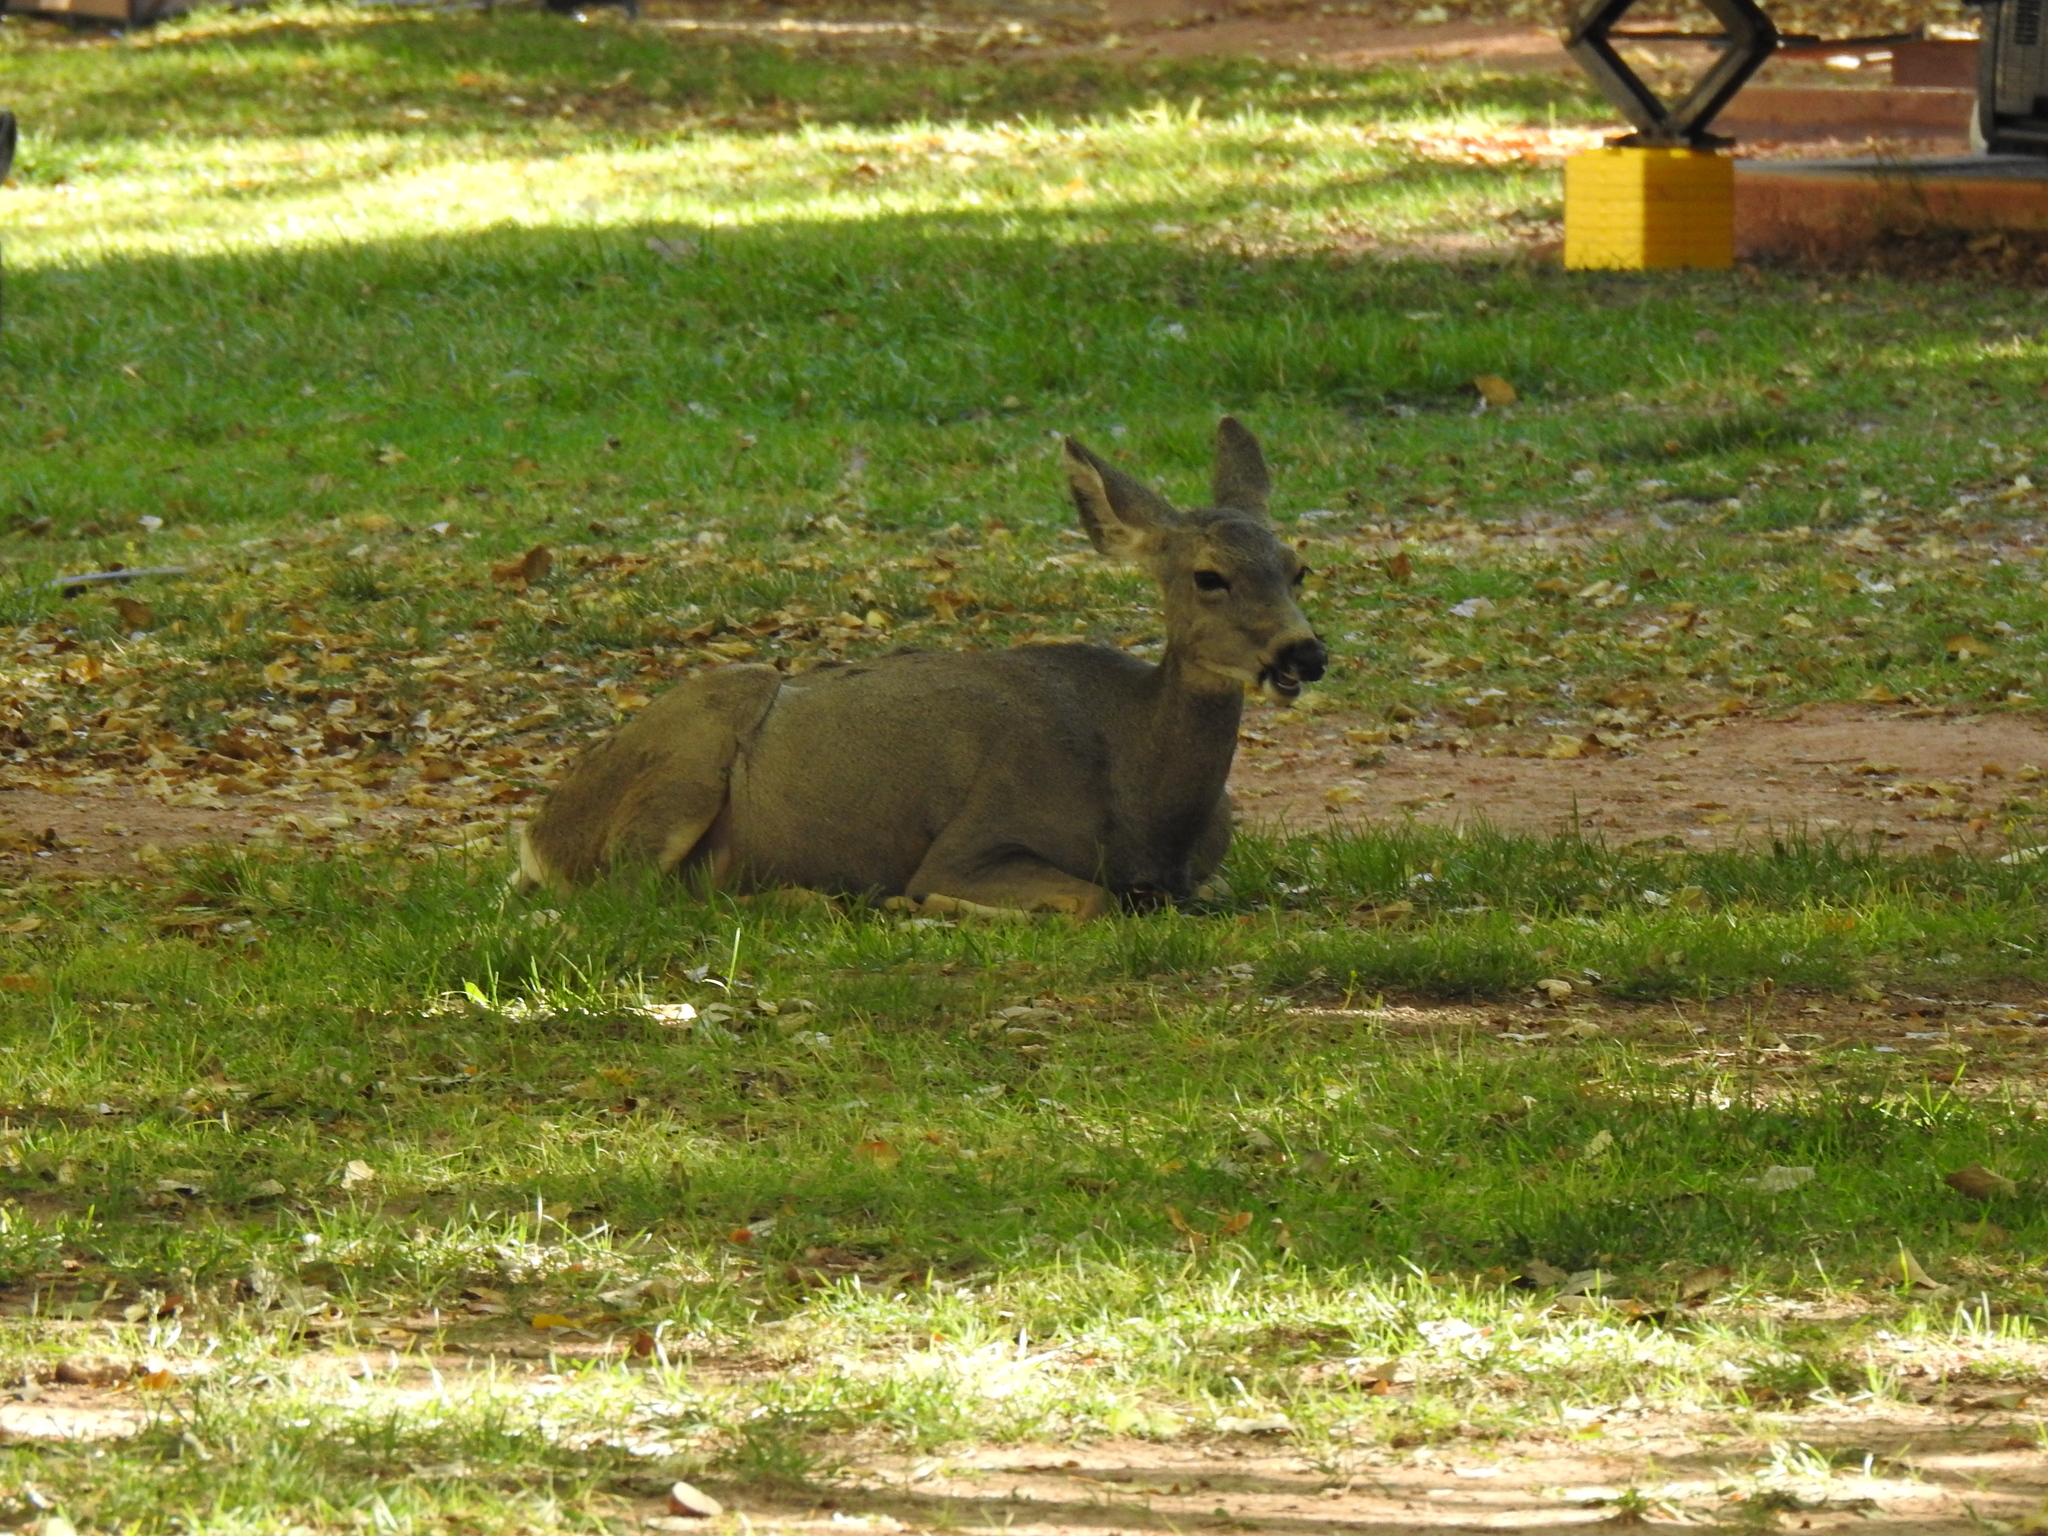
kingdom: Animalia
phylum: Chordata
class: Mammalia
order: Artiodactyla
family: Cervidae
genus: Odocoileus
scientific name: Odocoileus hemionus
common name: Mule deer
